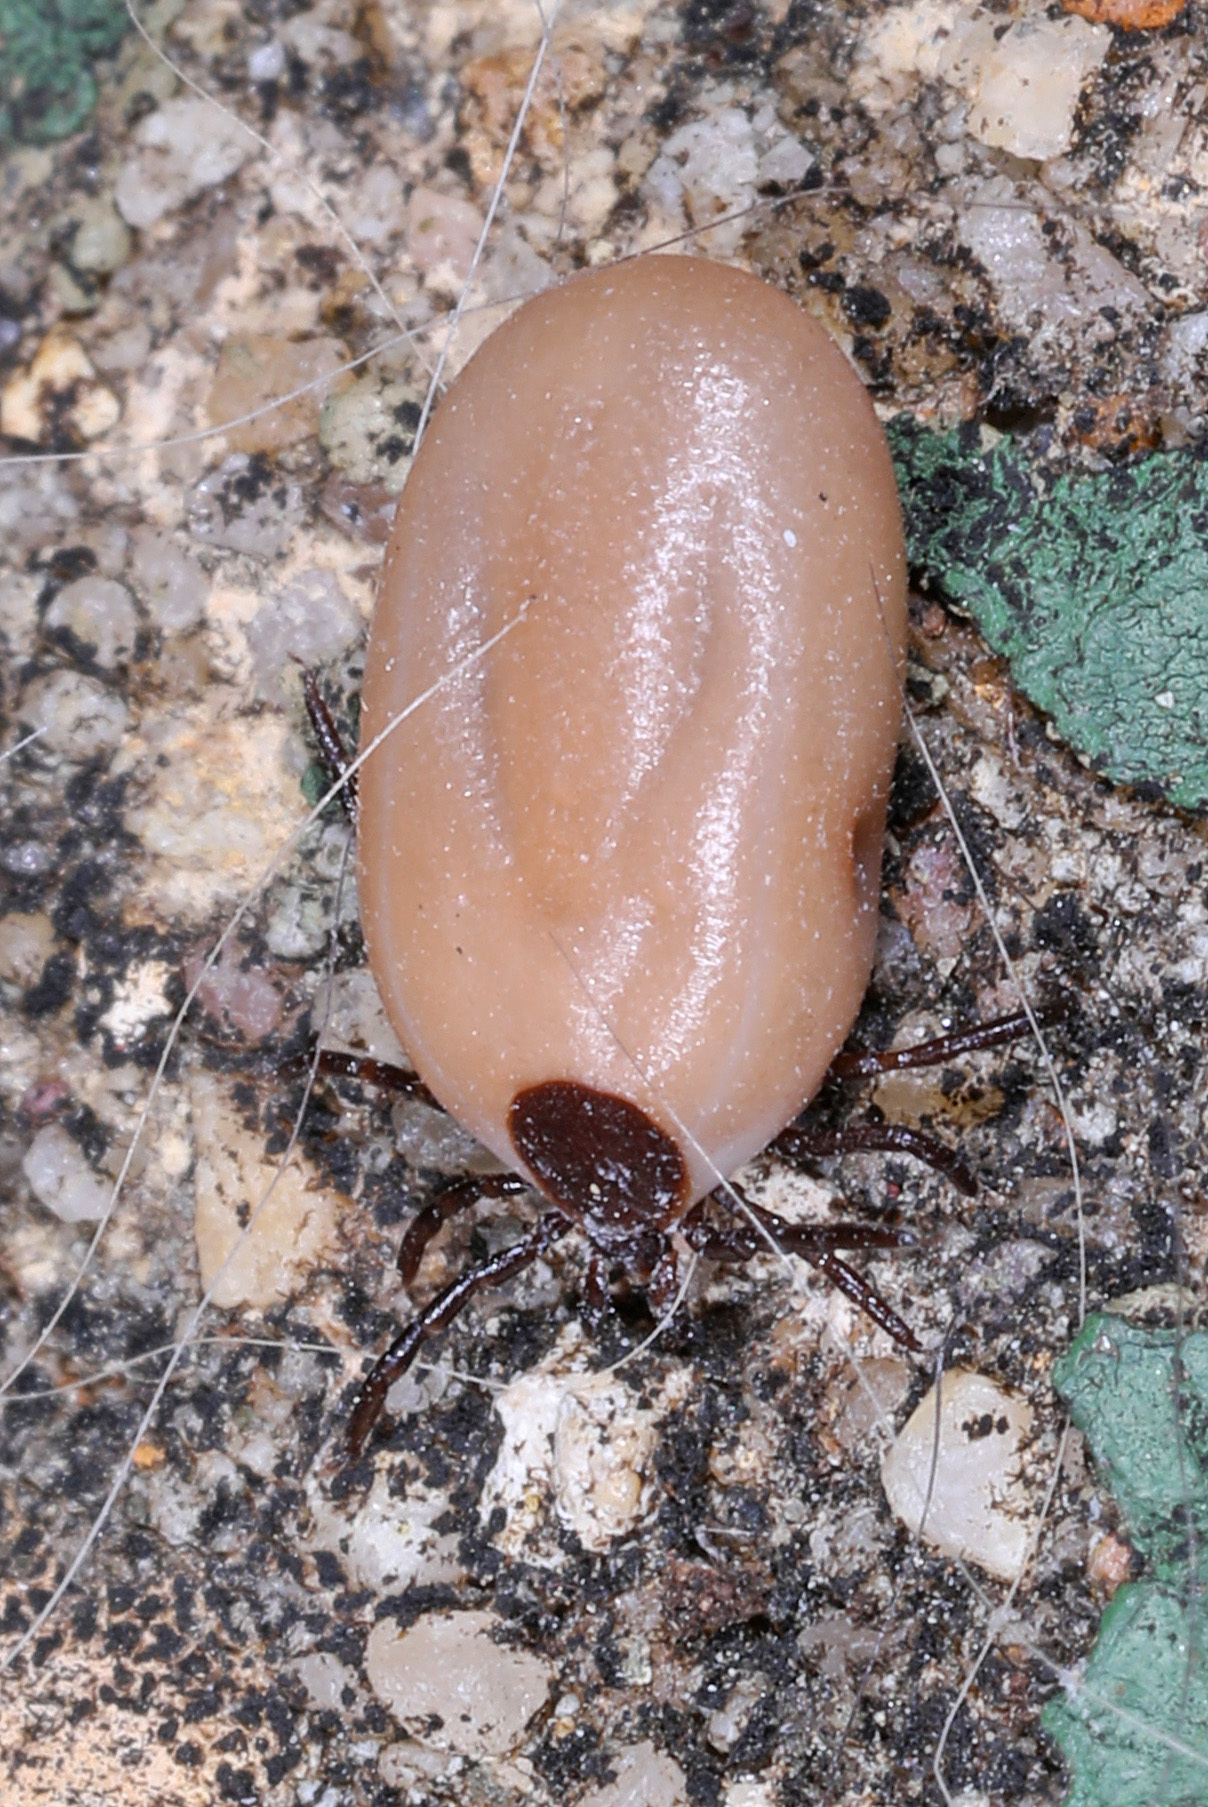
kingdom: Animalia
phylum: Arthropoda
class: Arachnida
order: Ixodida
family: Ixodidae
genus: Ixodes
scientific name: Ixodes scapularis
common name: Black legged tick
